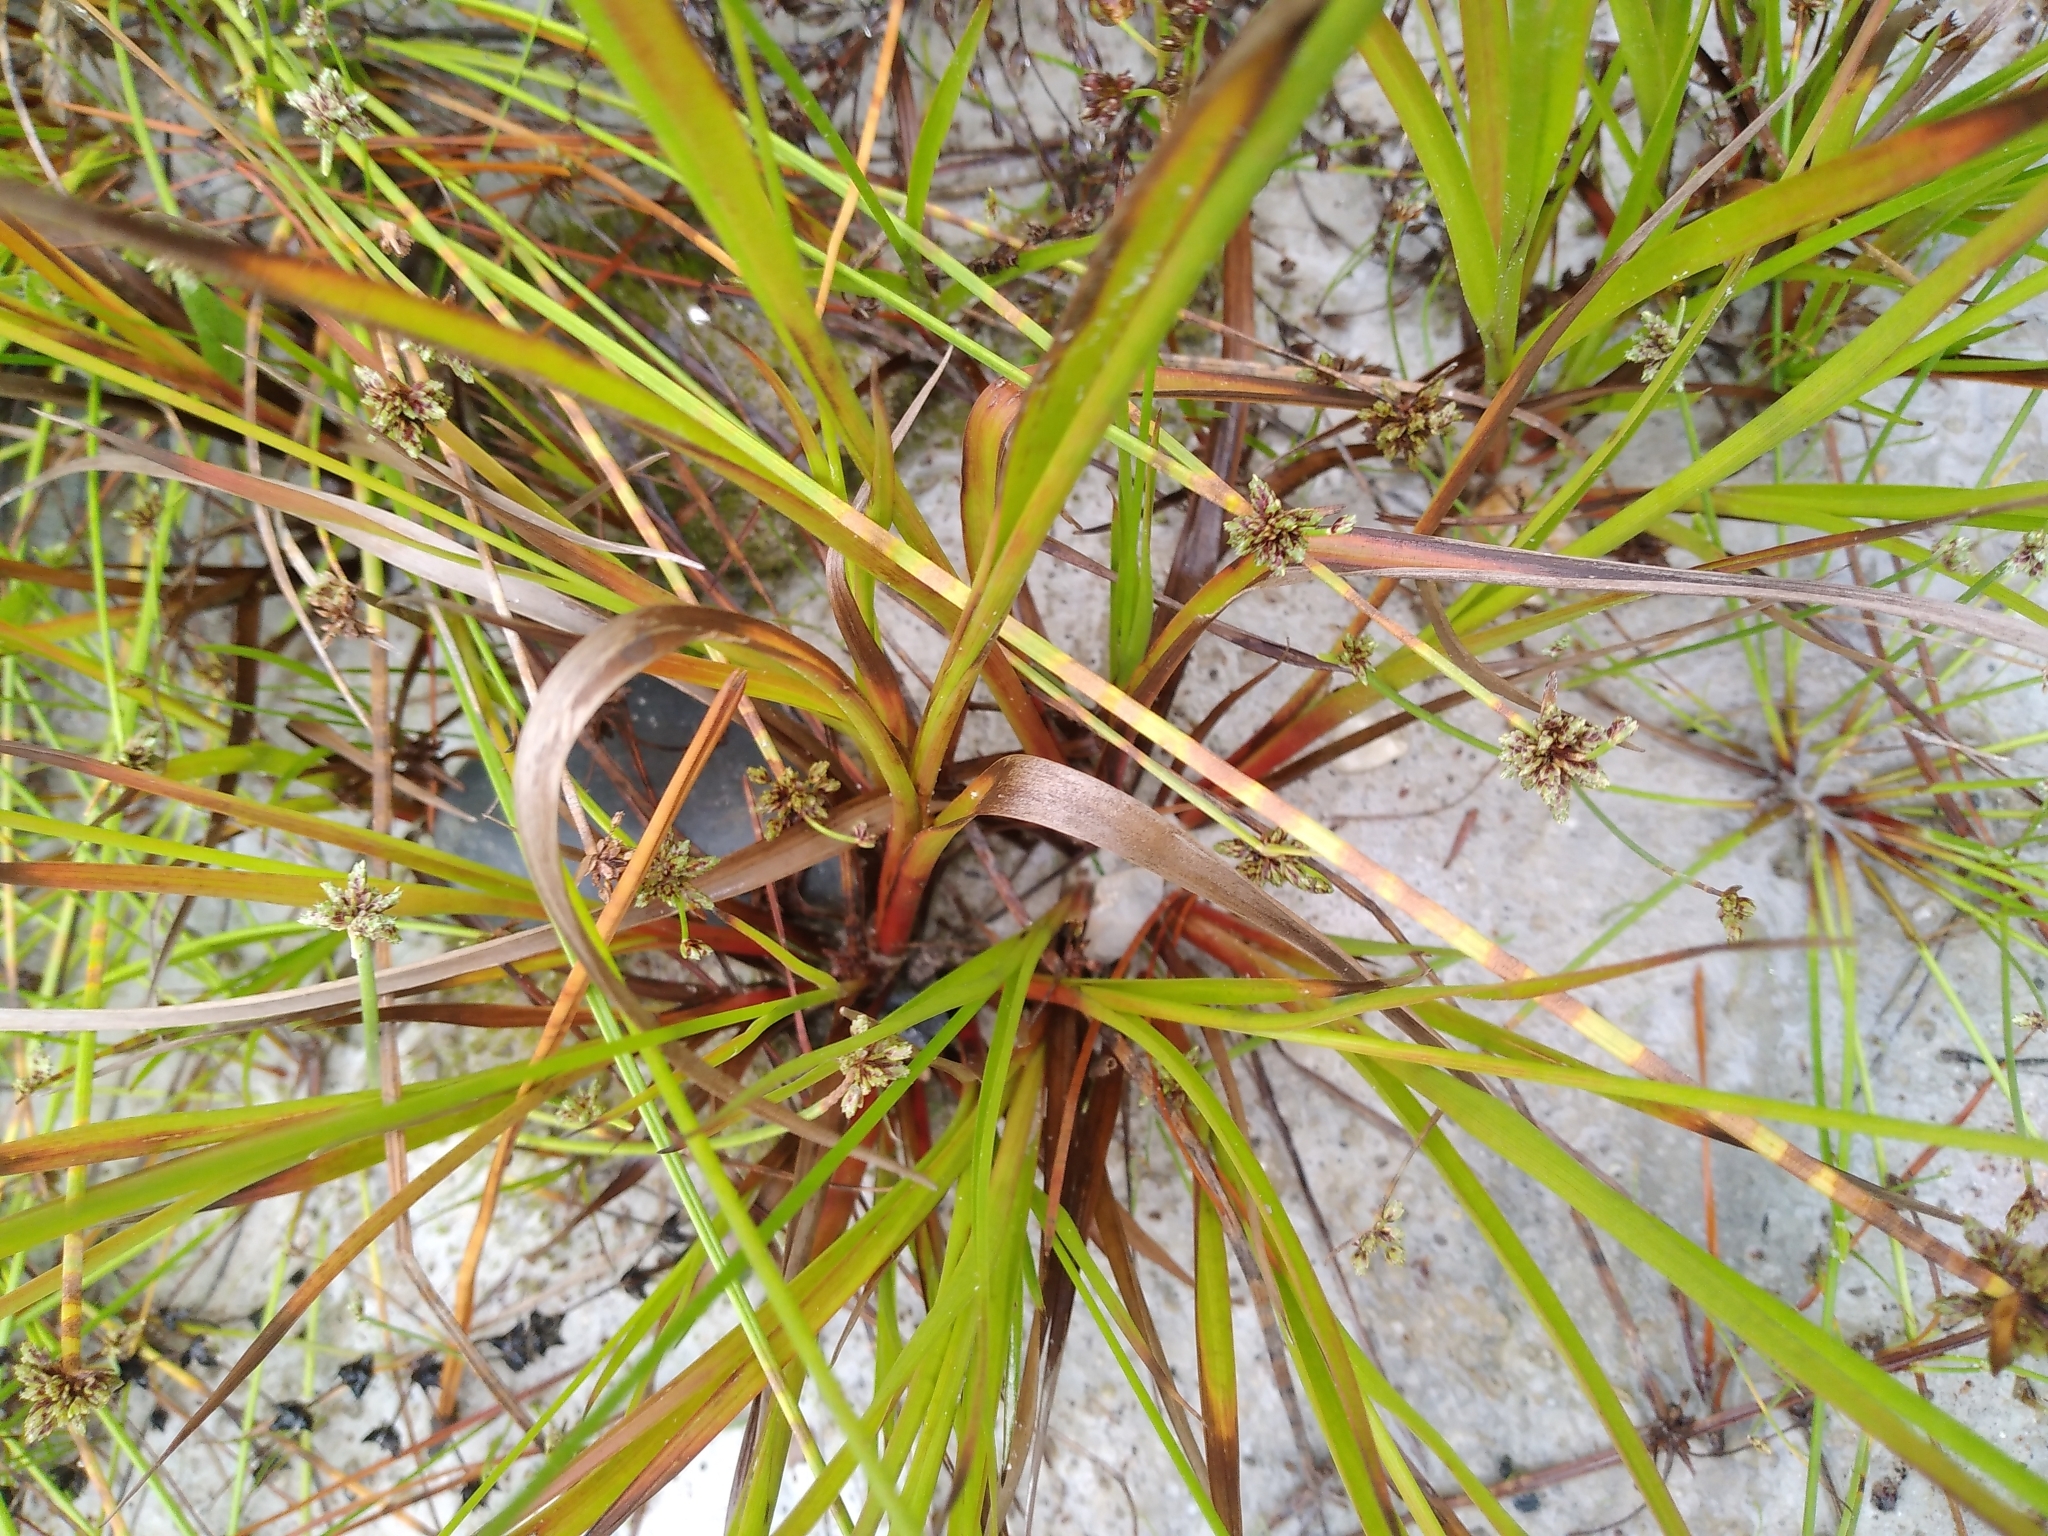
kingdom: Plantae
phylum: Tracheophyta
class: Liliopsida
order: Poales
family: Juncaceae
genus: Juncus
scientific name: Juncus planifolius
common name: Broadleaf rush
